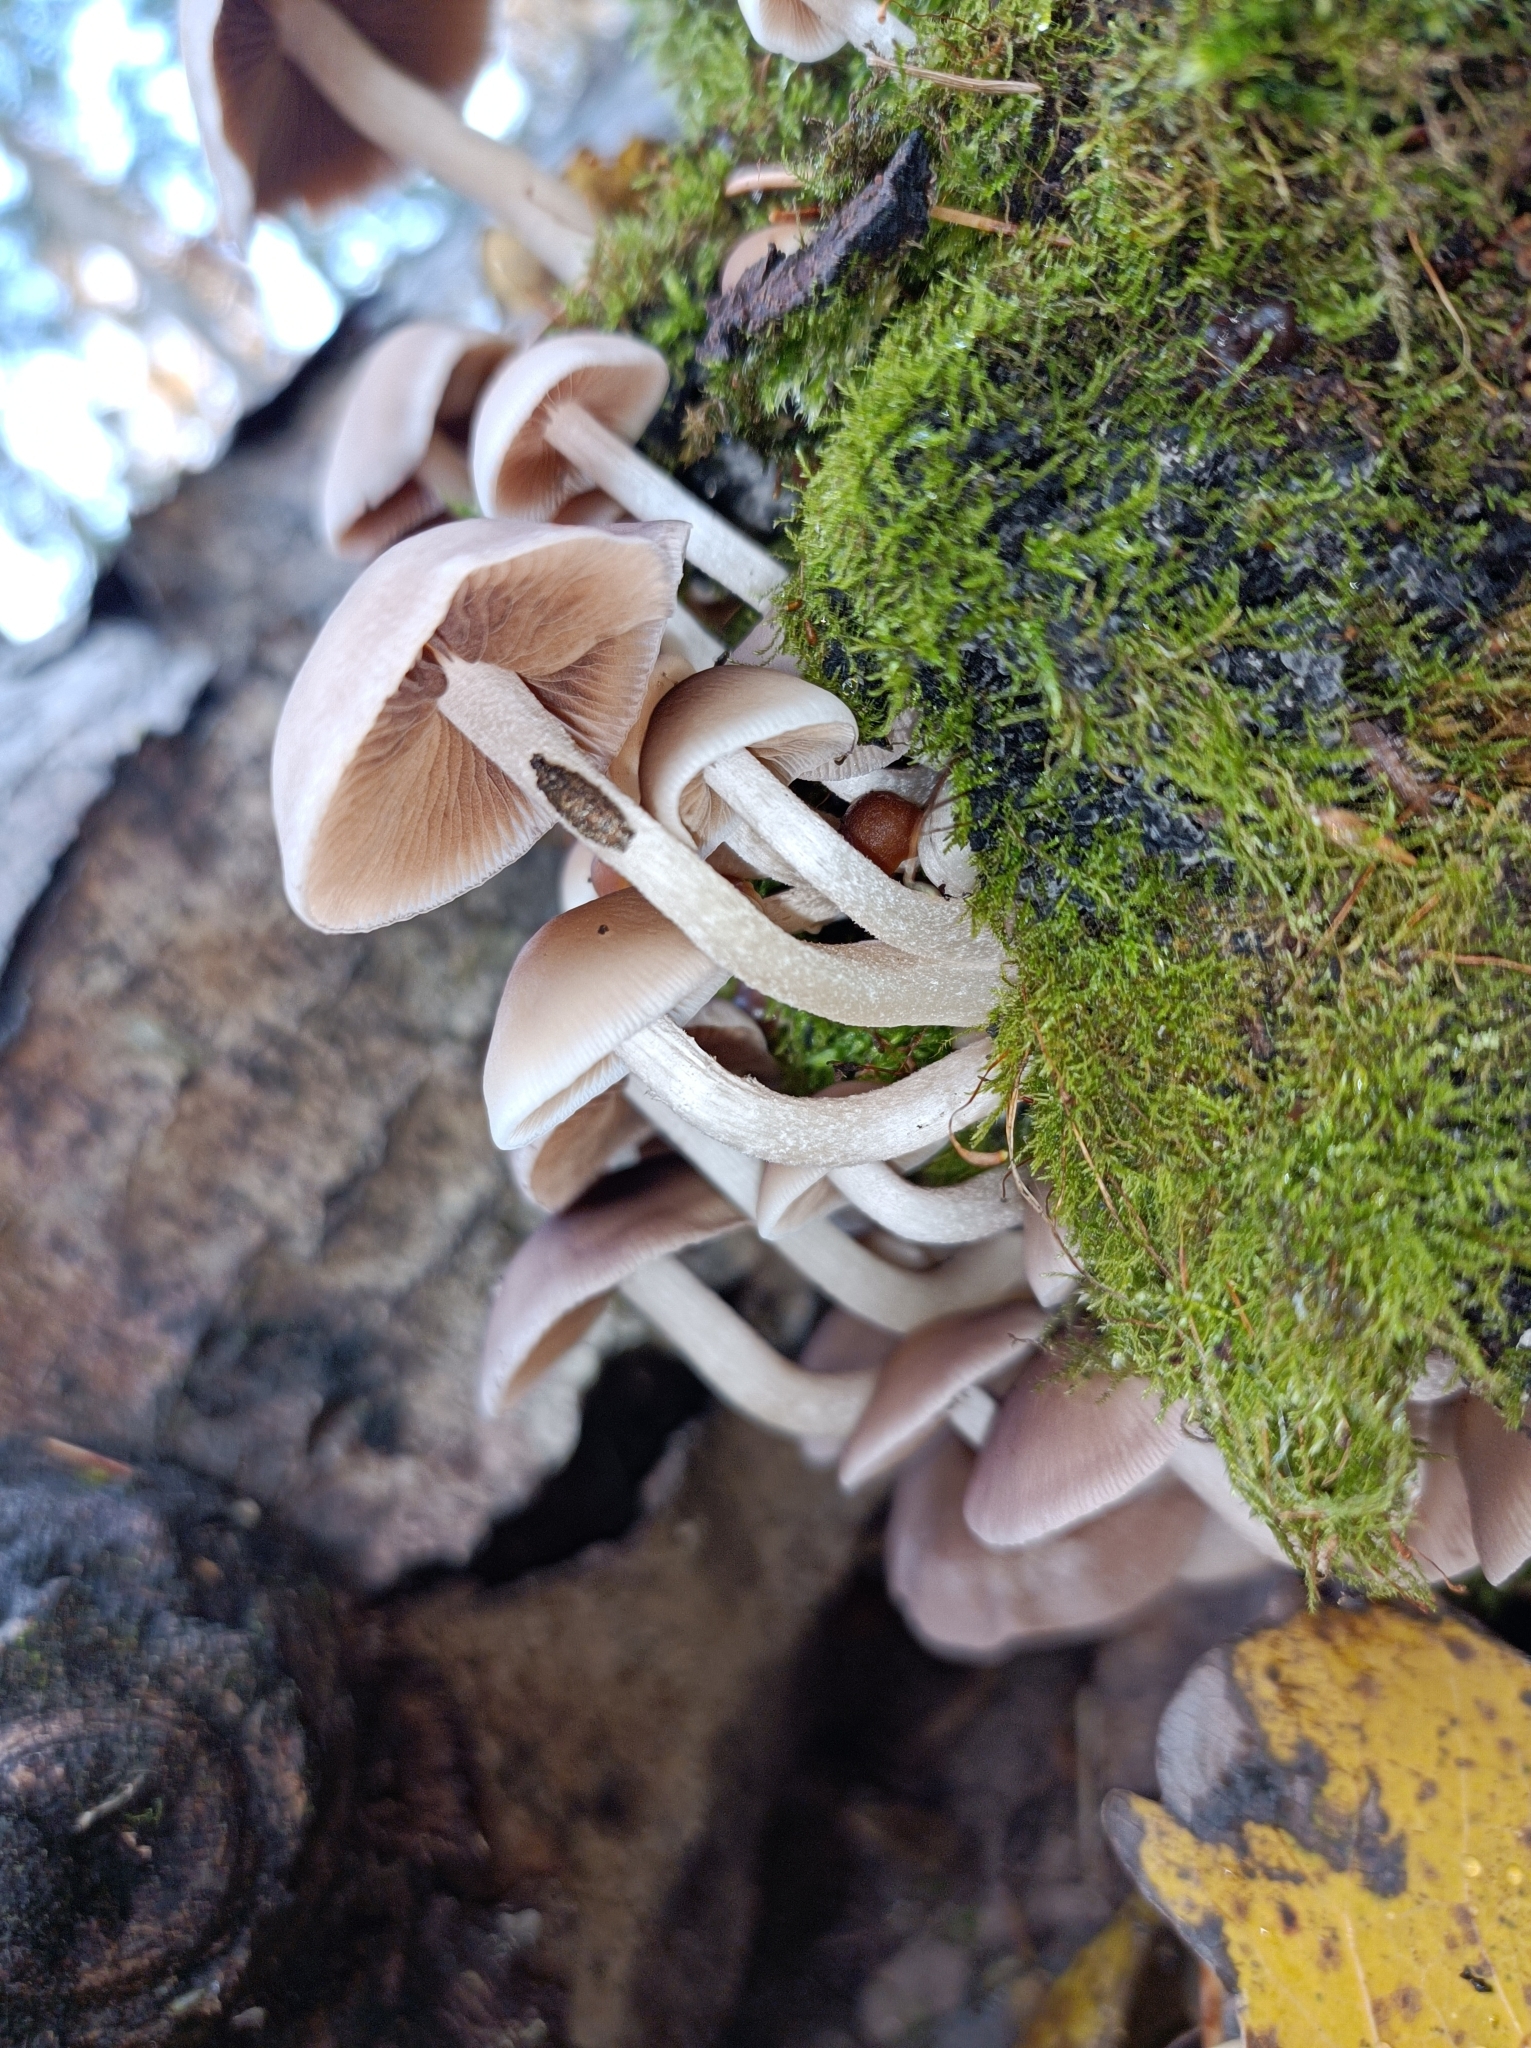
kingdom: Fungi
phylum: Basidiomycota
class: Agaricomycetes
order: Agaricales
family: Psathyrellaceae
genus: Homophron
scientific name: Homophron spadiceum
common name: Chestnut brittlestem
